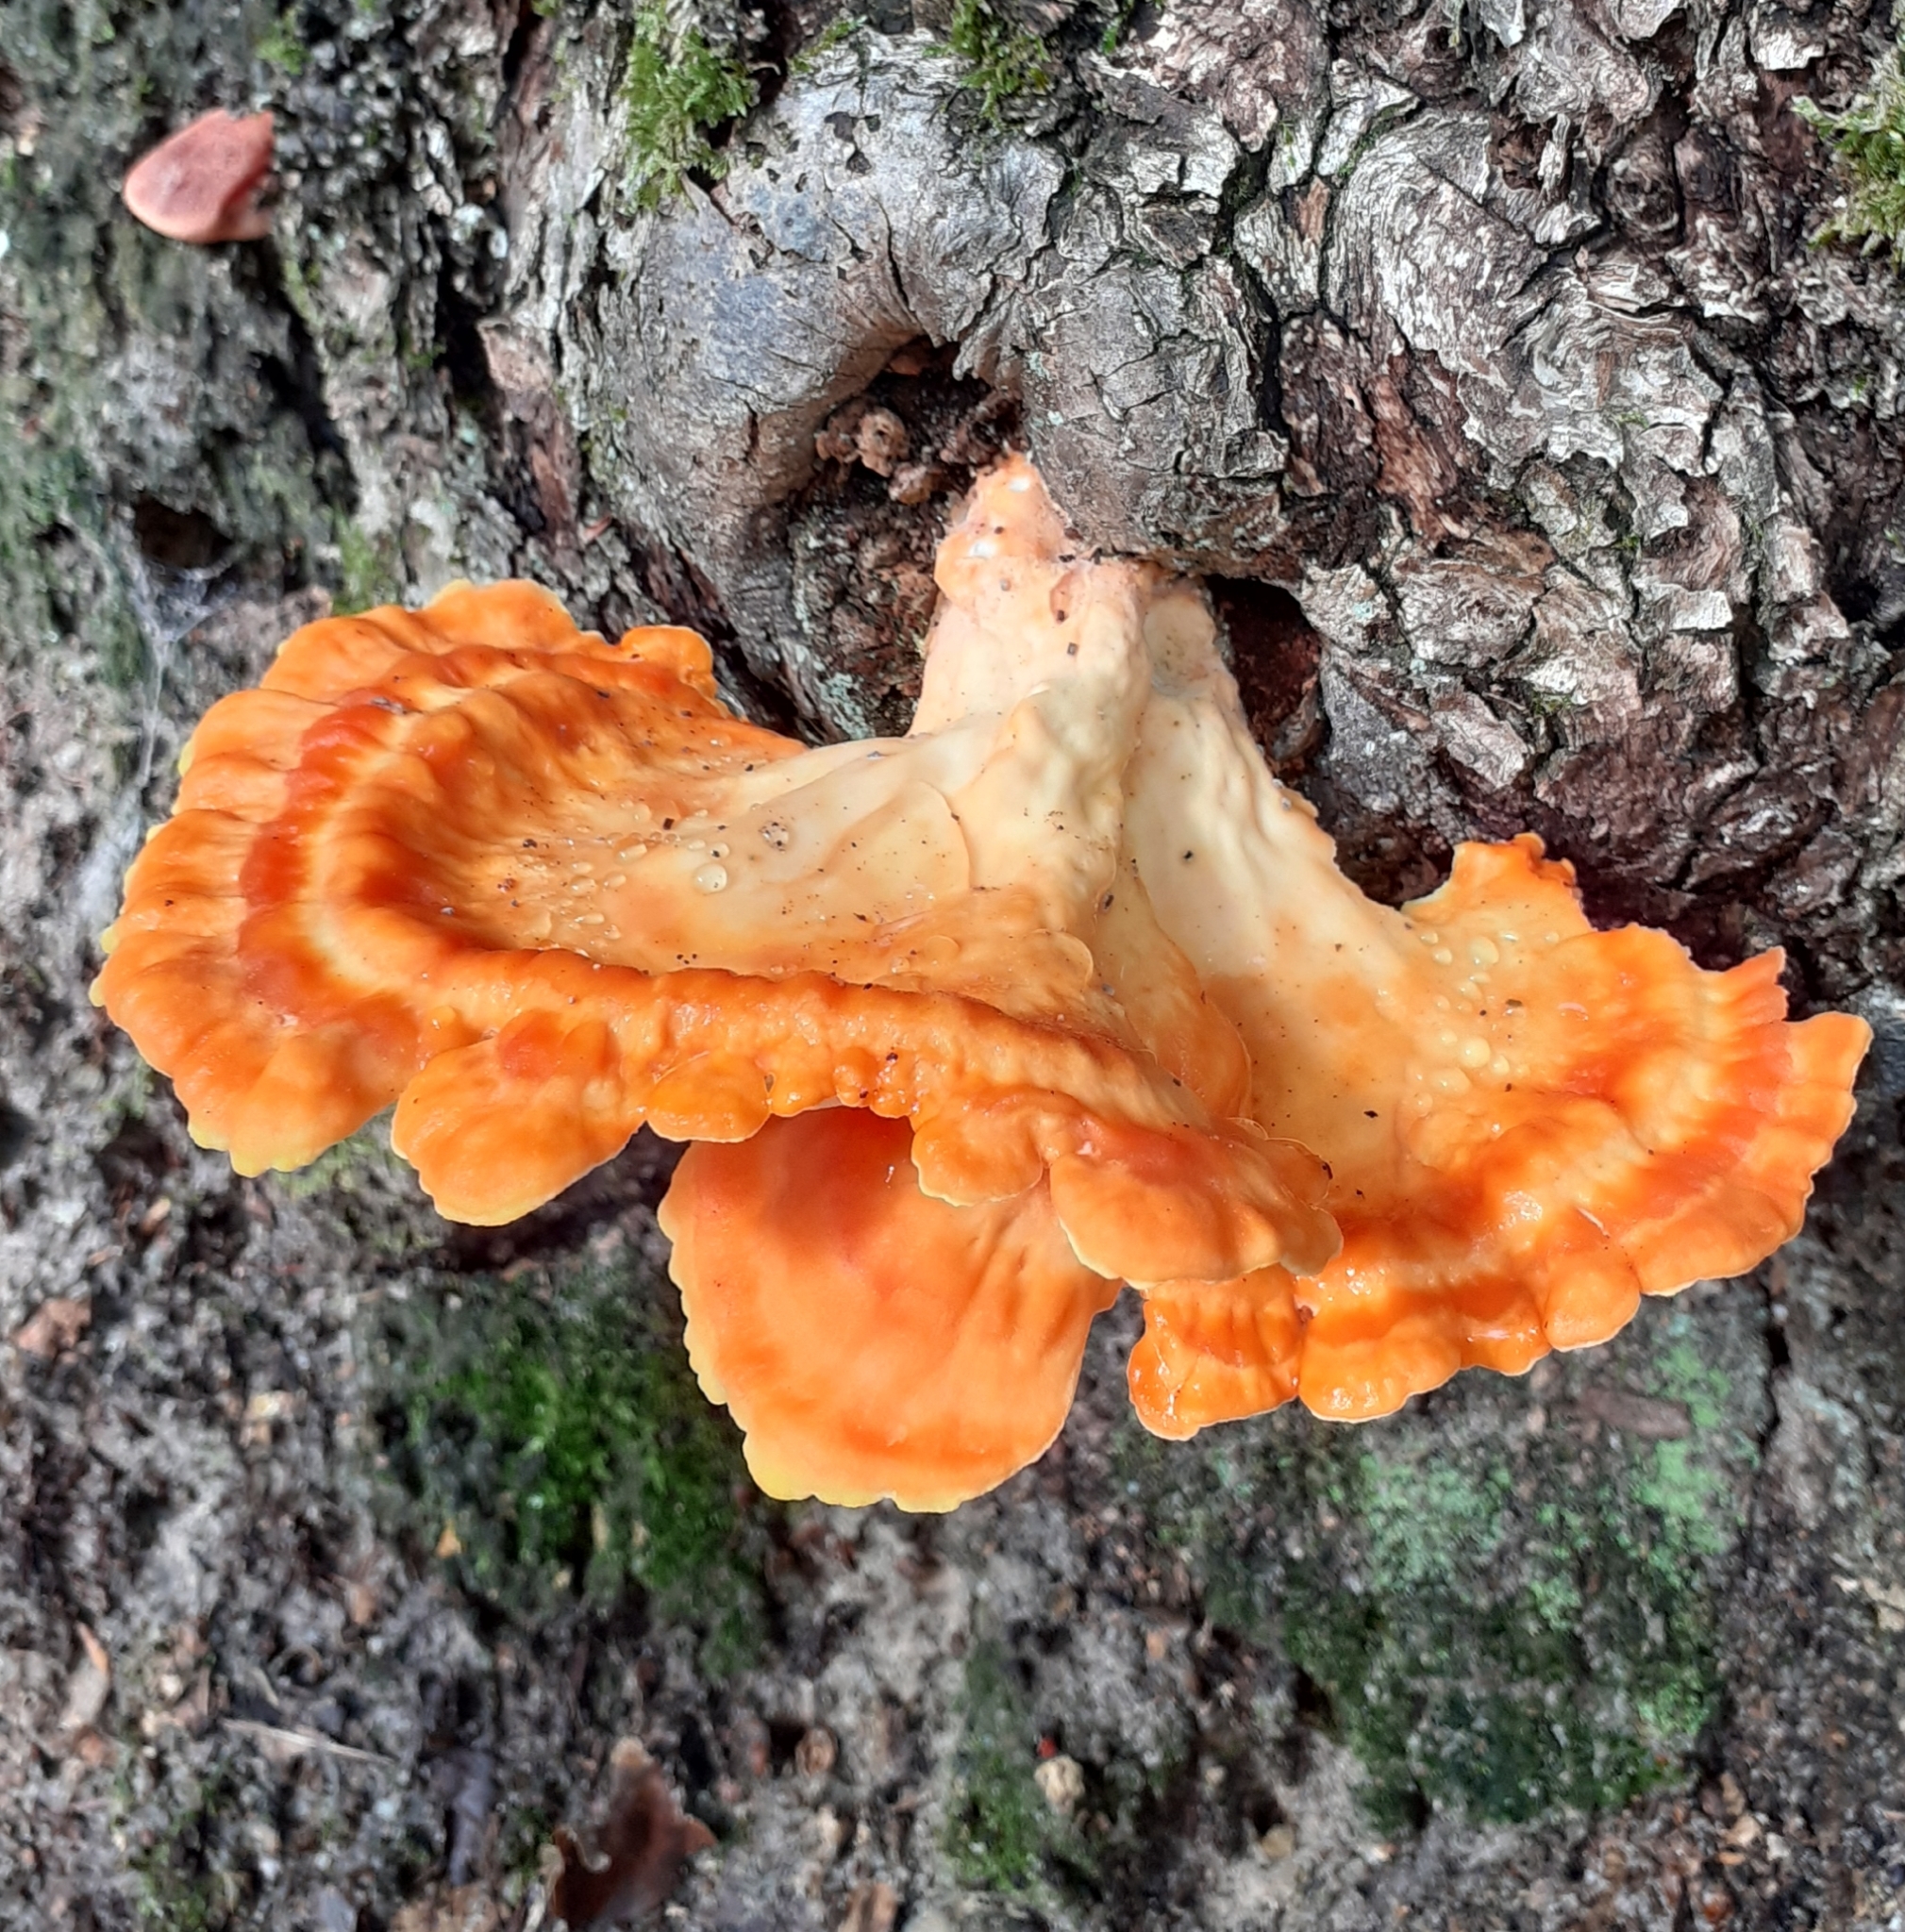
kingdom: Fungi
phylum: Basidiomycota
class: Agaricomycetes
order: Polyporales
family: Laetiporaceae
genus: Laetiporus
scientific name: Laetiporus sulphureus
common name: Chicken of the woods
